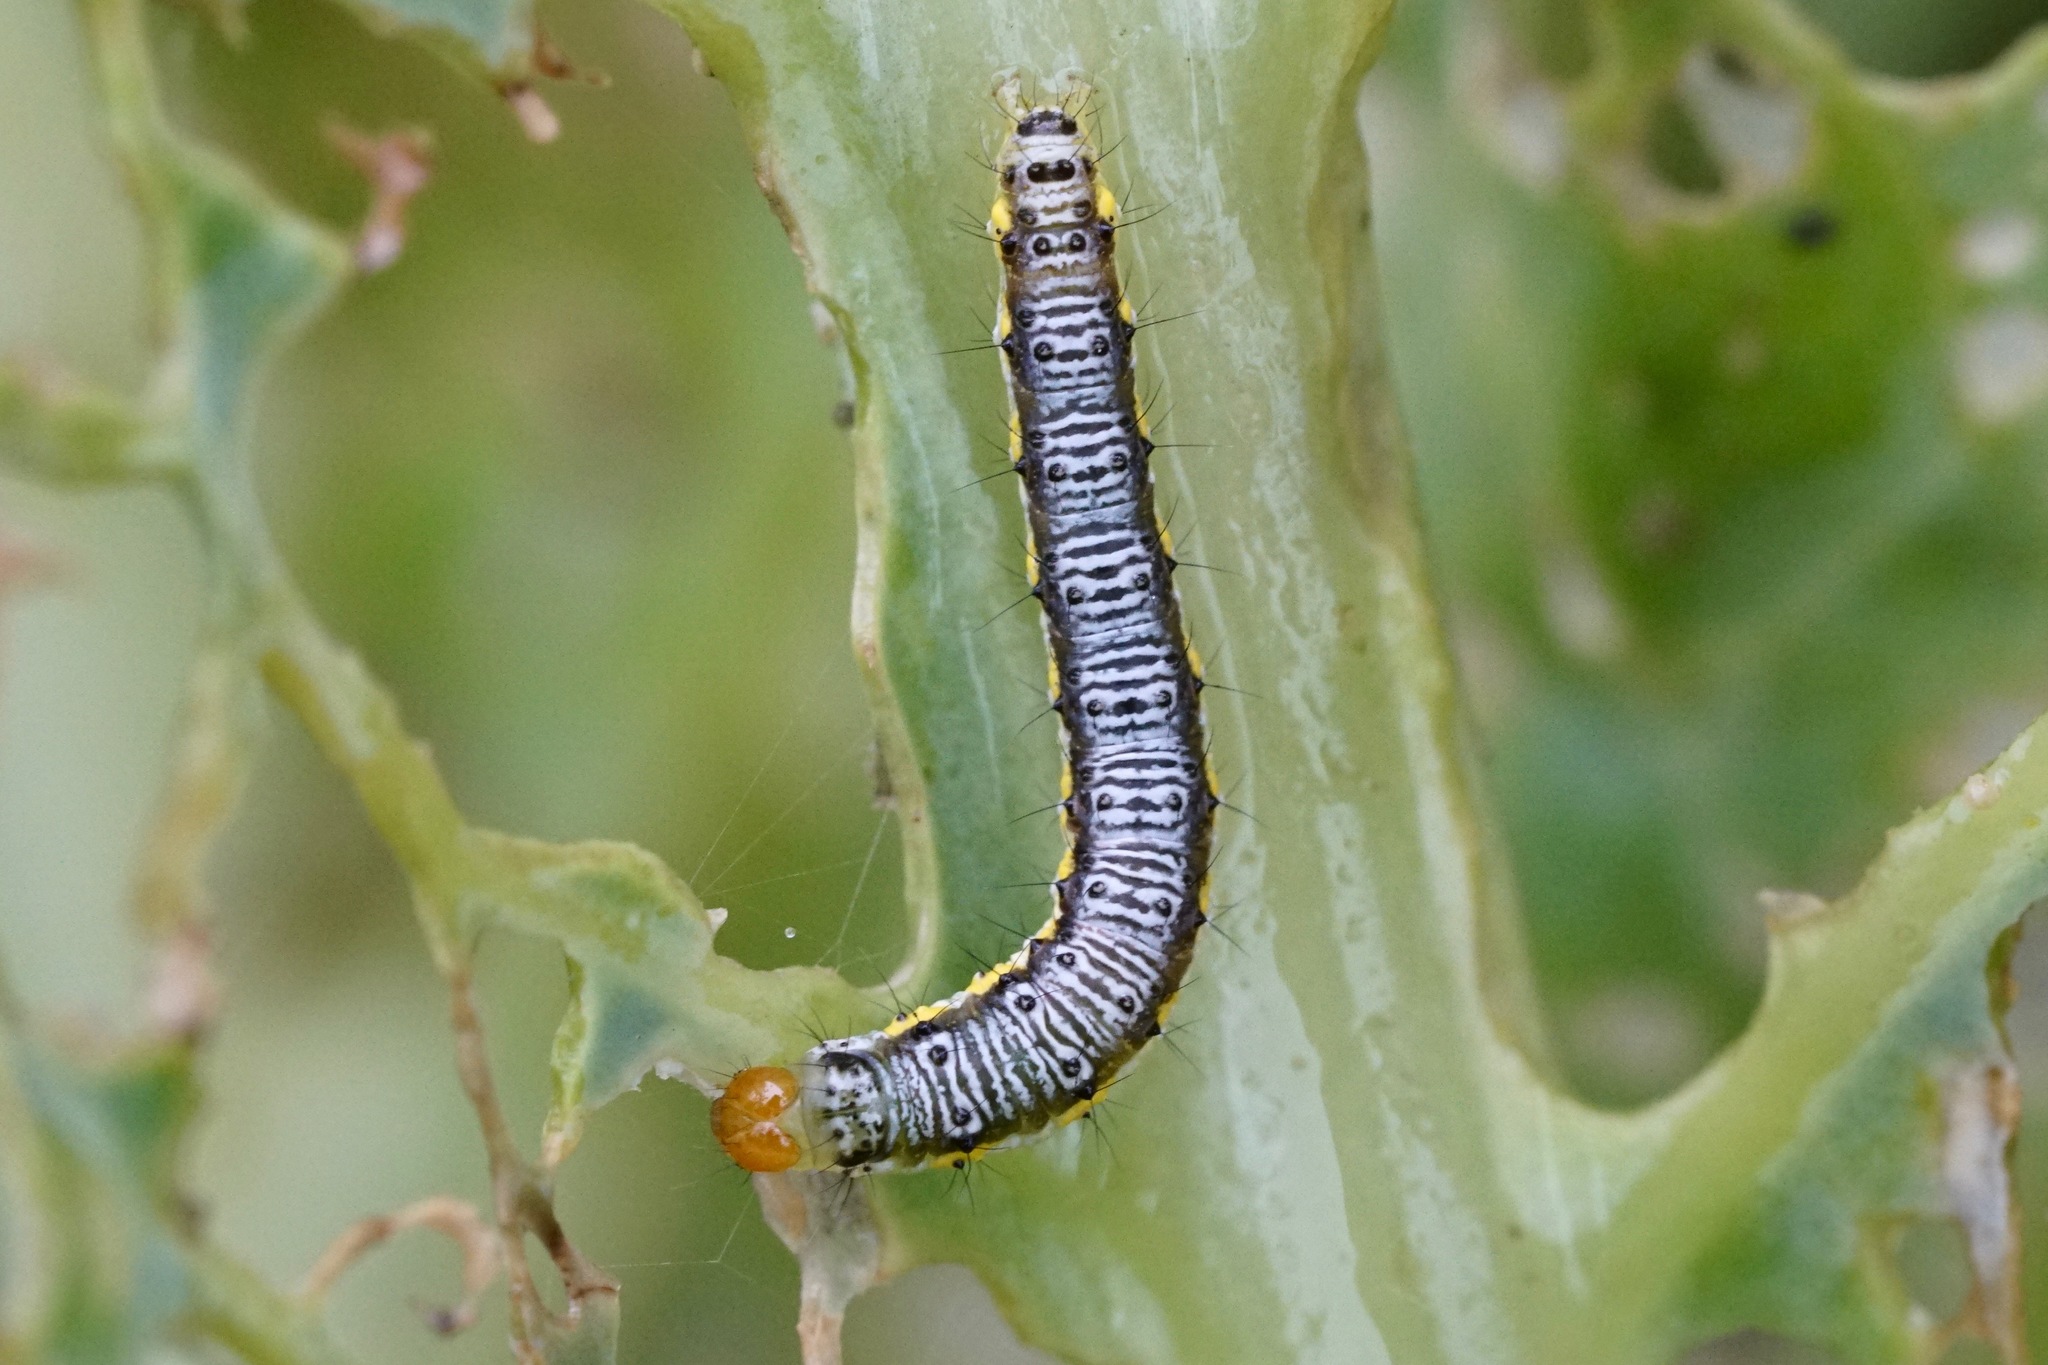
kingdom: Animalia
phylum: Arthropoda
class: Insecta
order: Lepidoptera
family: Crambidae
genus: Evergestis
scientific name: Evergestis rimosalis
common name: Cross-striped cabbageworm moth
